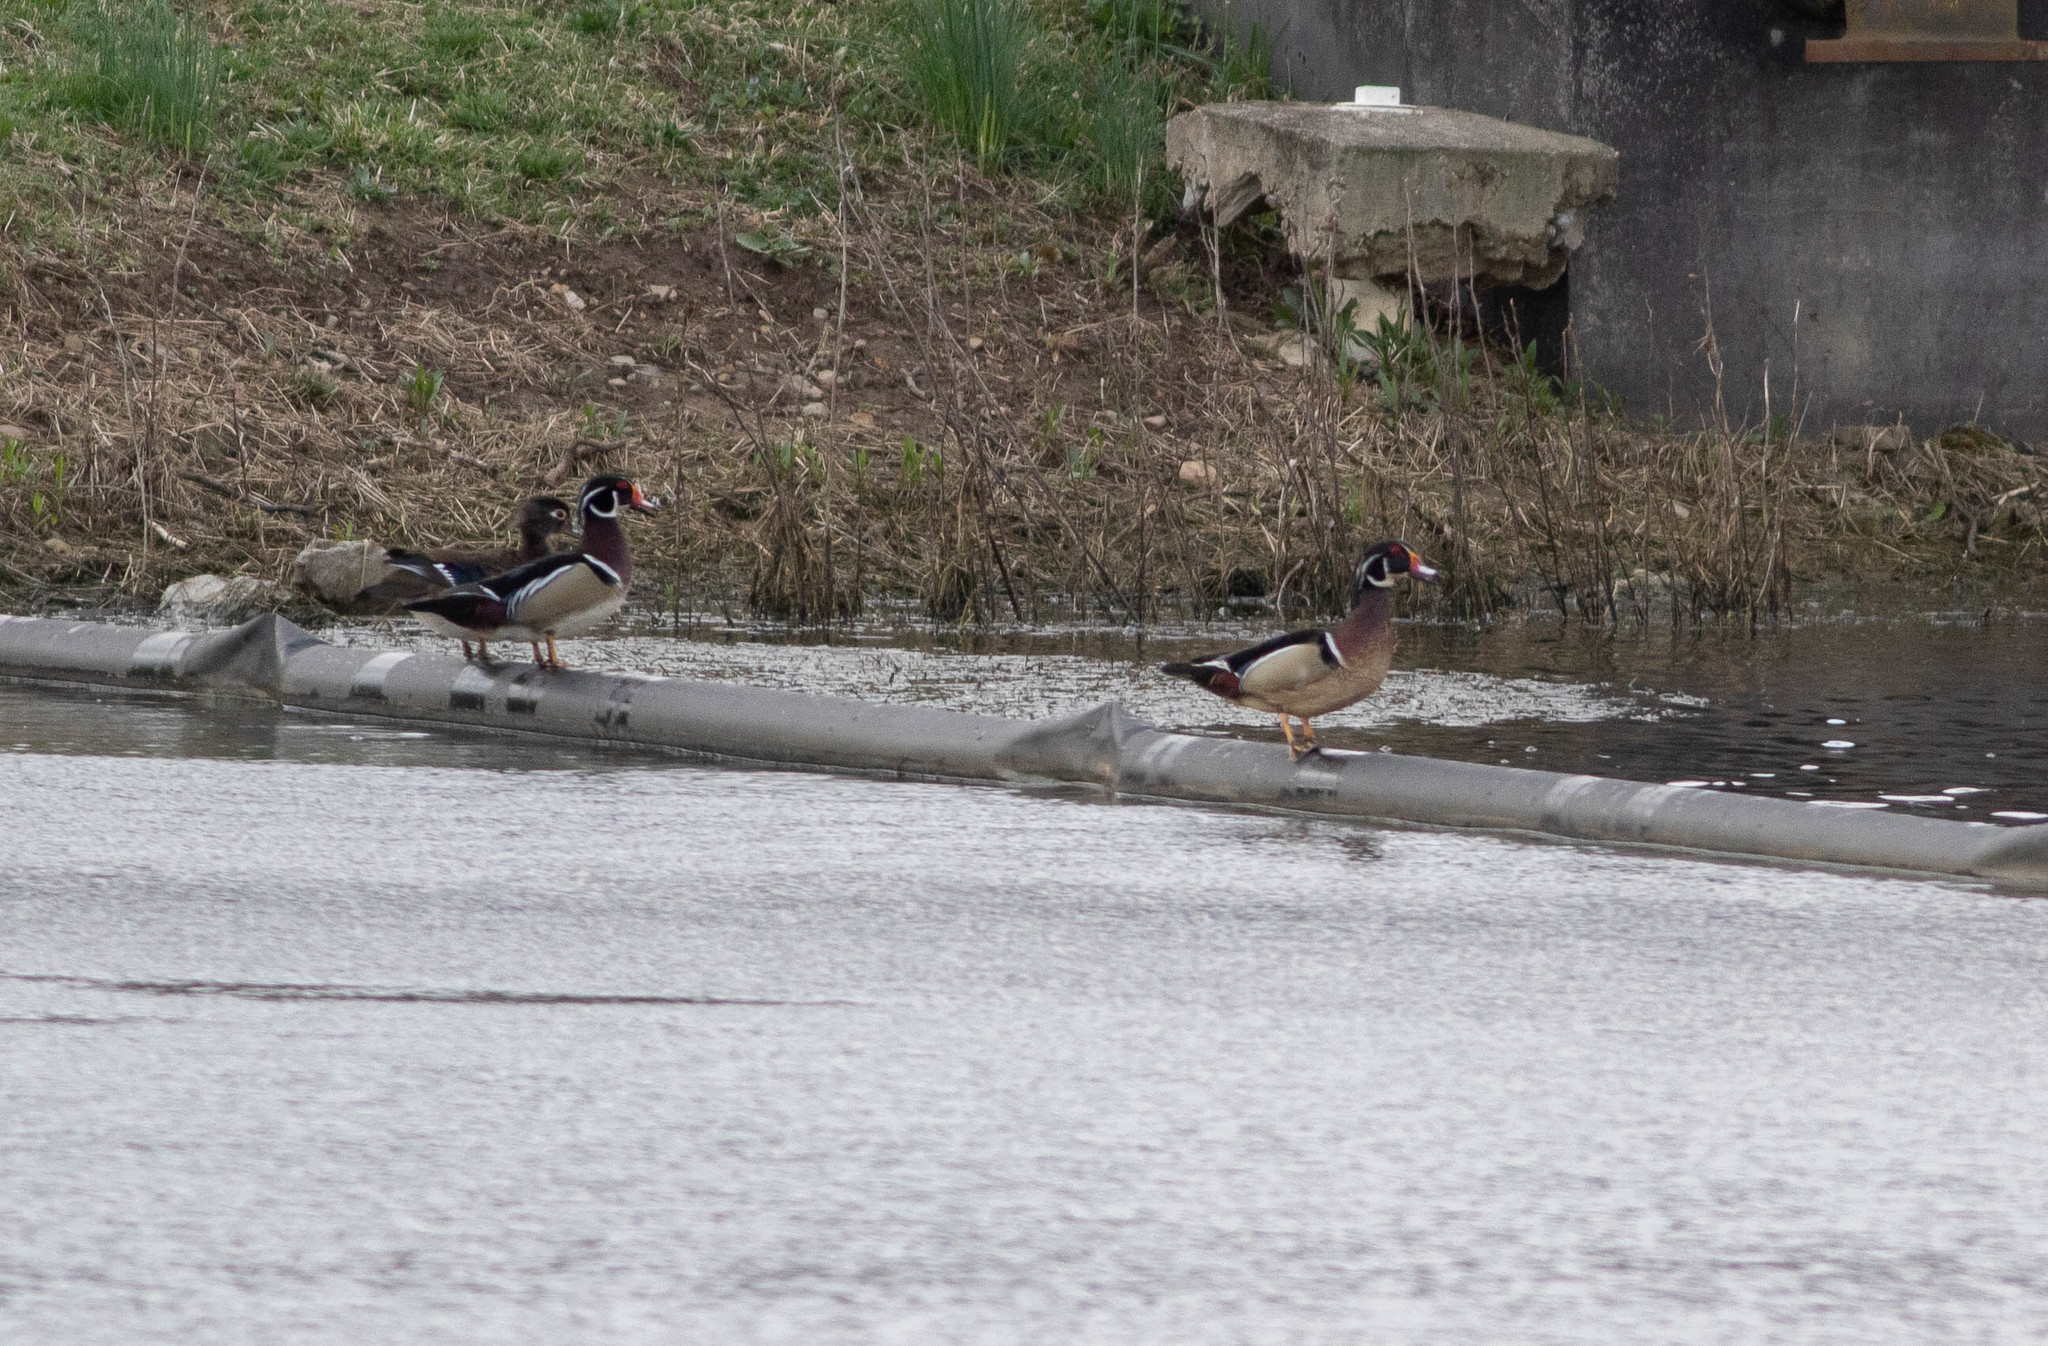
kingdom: Animalia
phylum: Chordata
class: Aves
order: Anseriformes
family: Anatidae
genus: Aix
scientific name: Aix sponsa
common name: Wood duck
